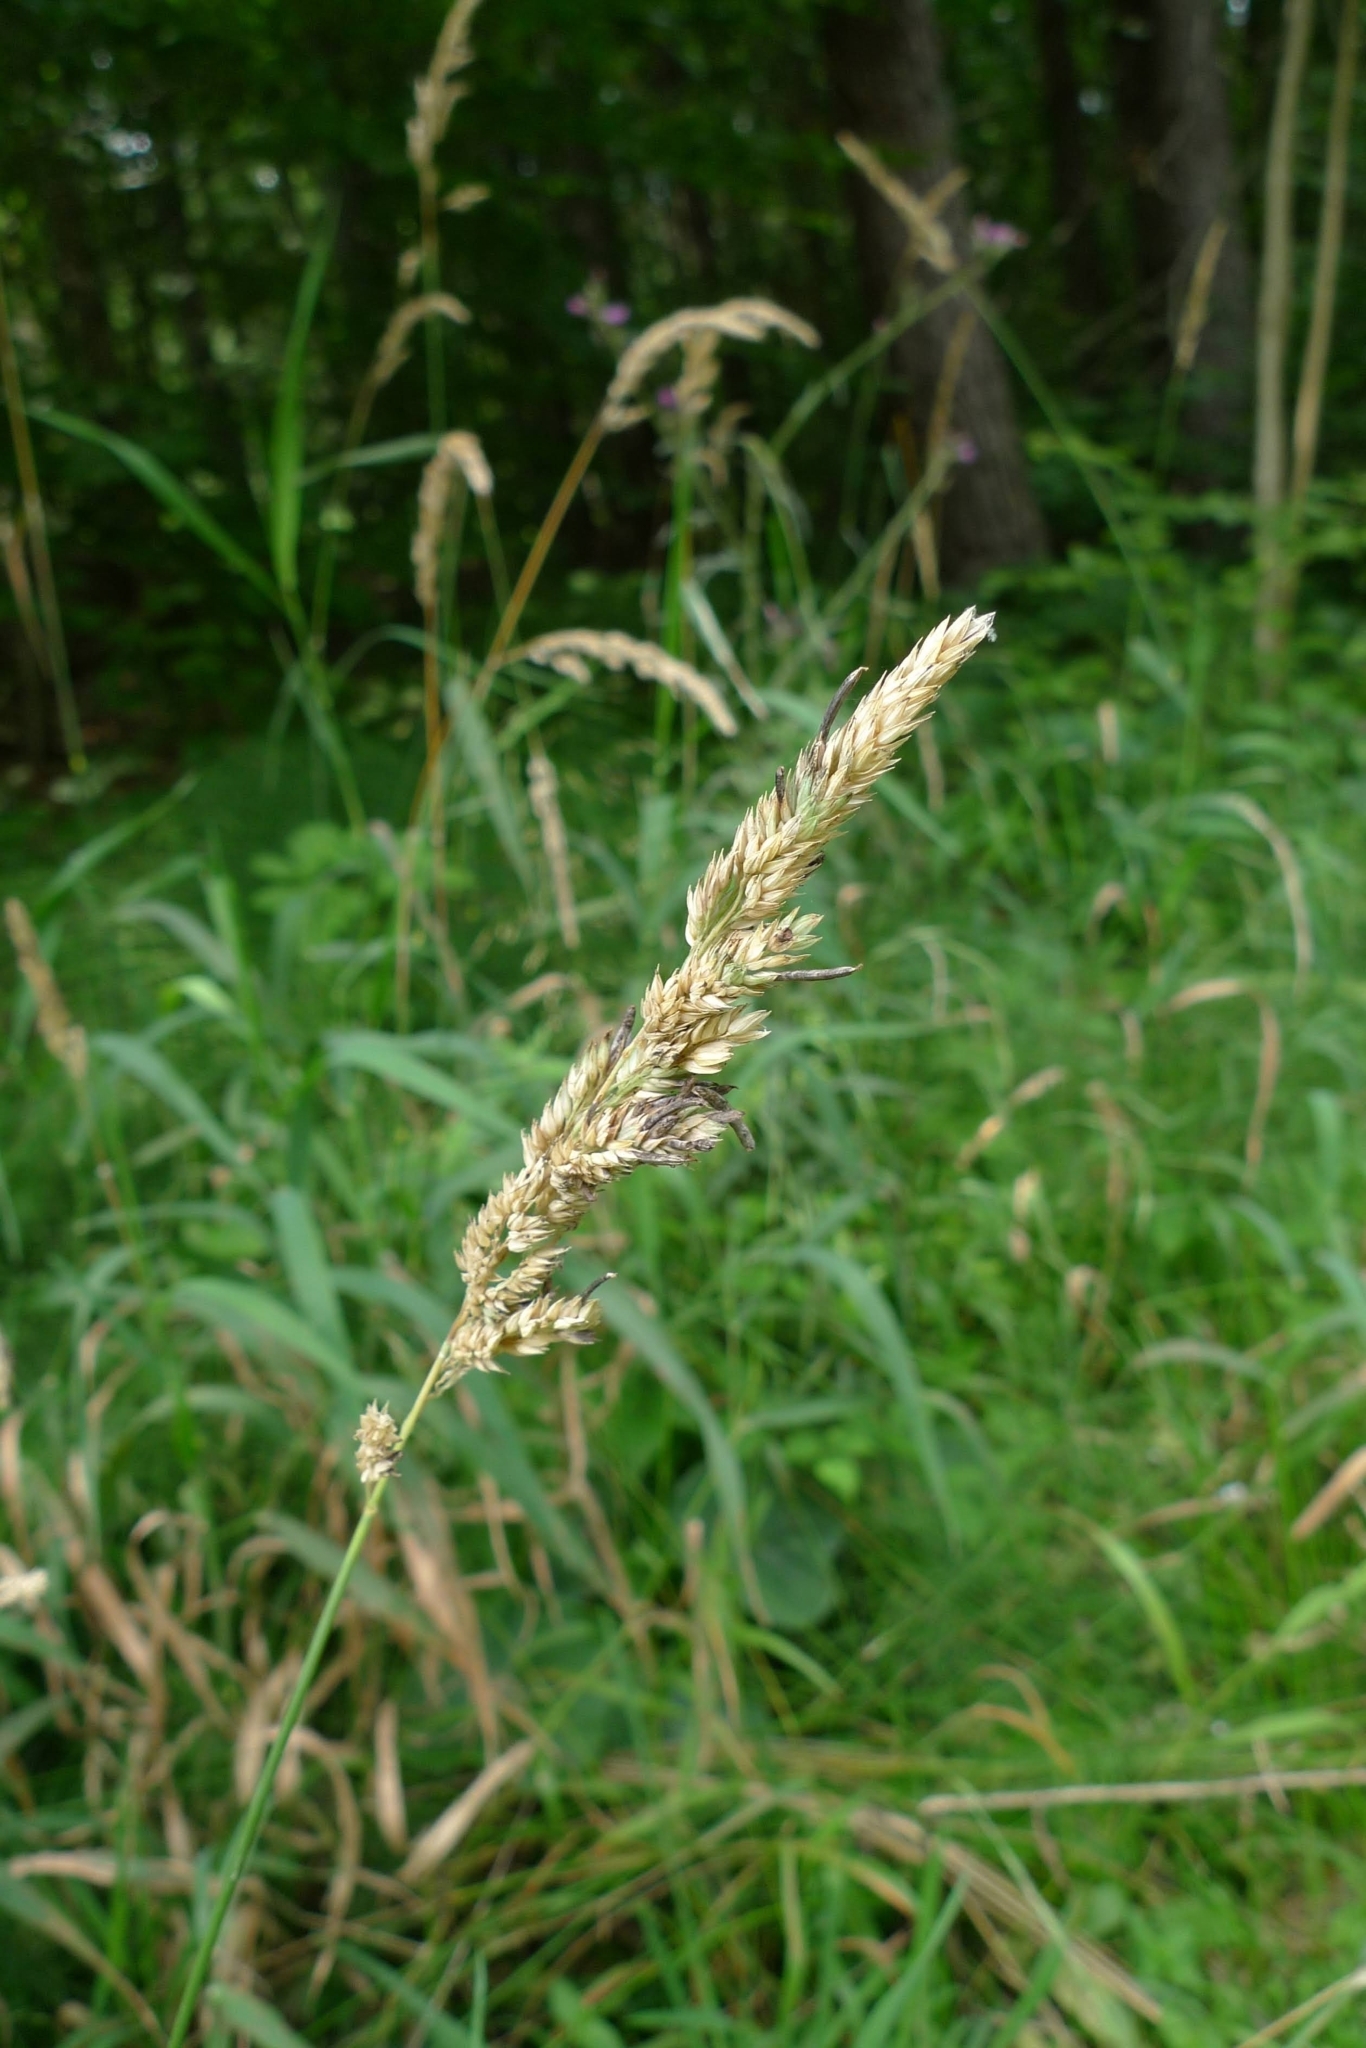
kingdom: Plantae
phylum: Tracheophyta
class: Liliopsida
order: Poales
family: Poaceae
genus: Phalaris
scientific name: Phalaris arundinacea
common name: Reed canary-grass
